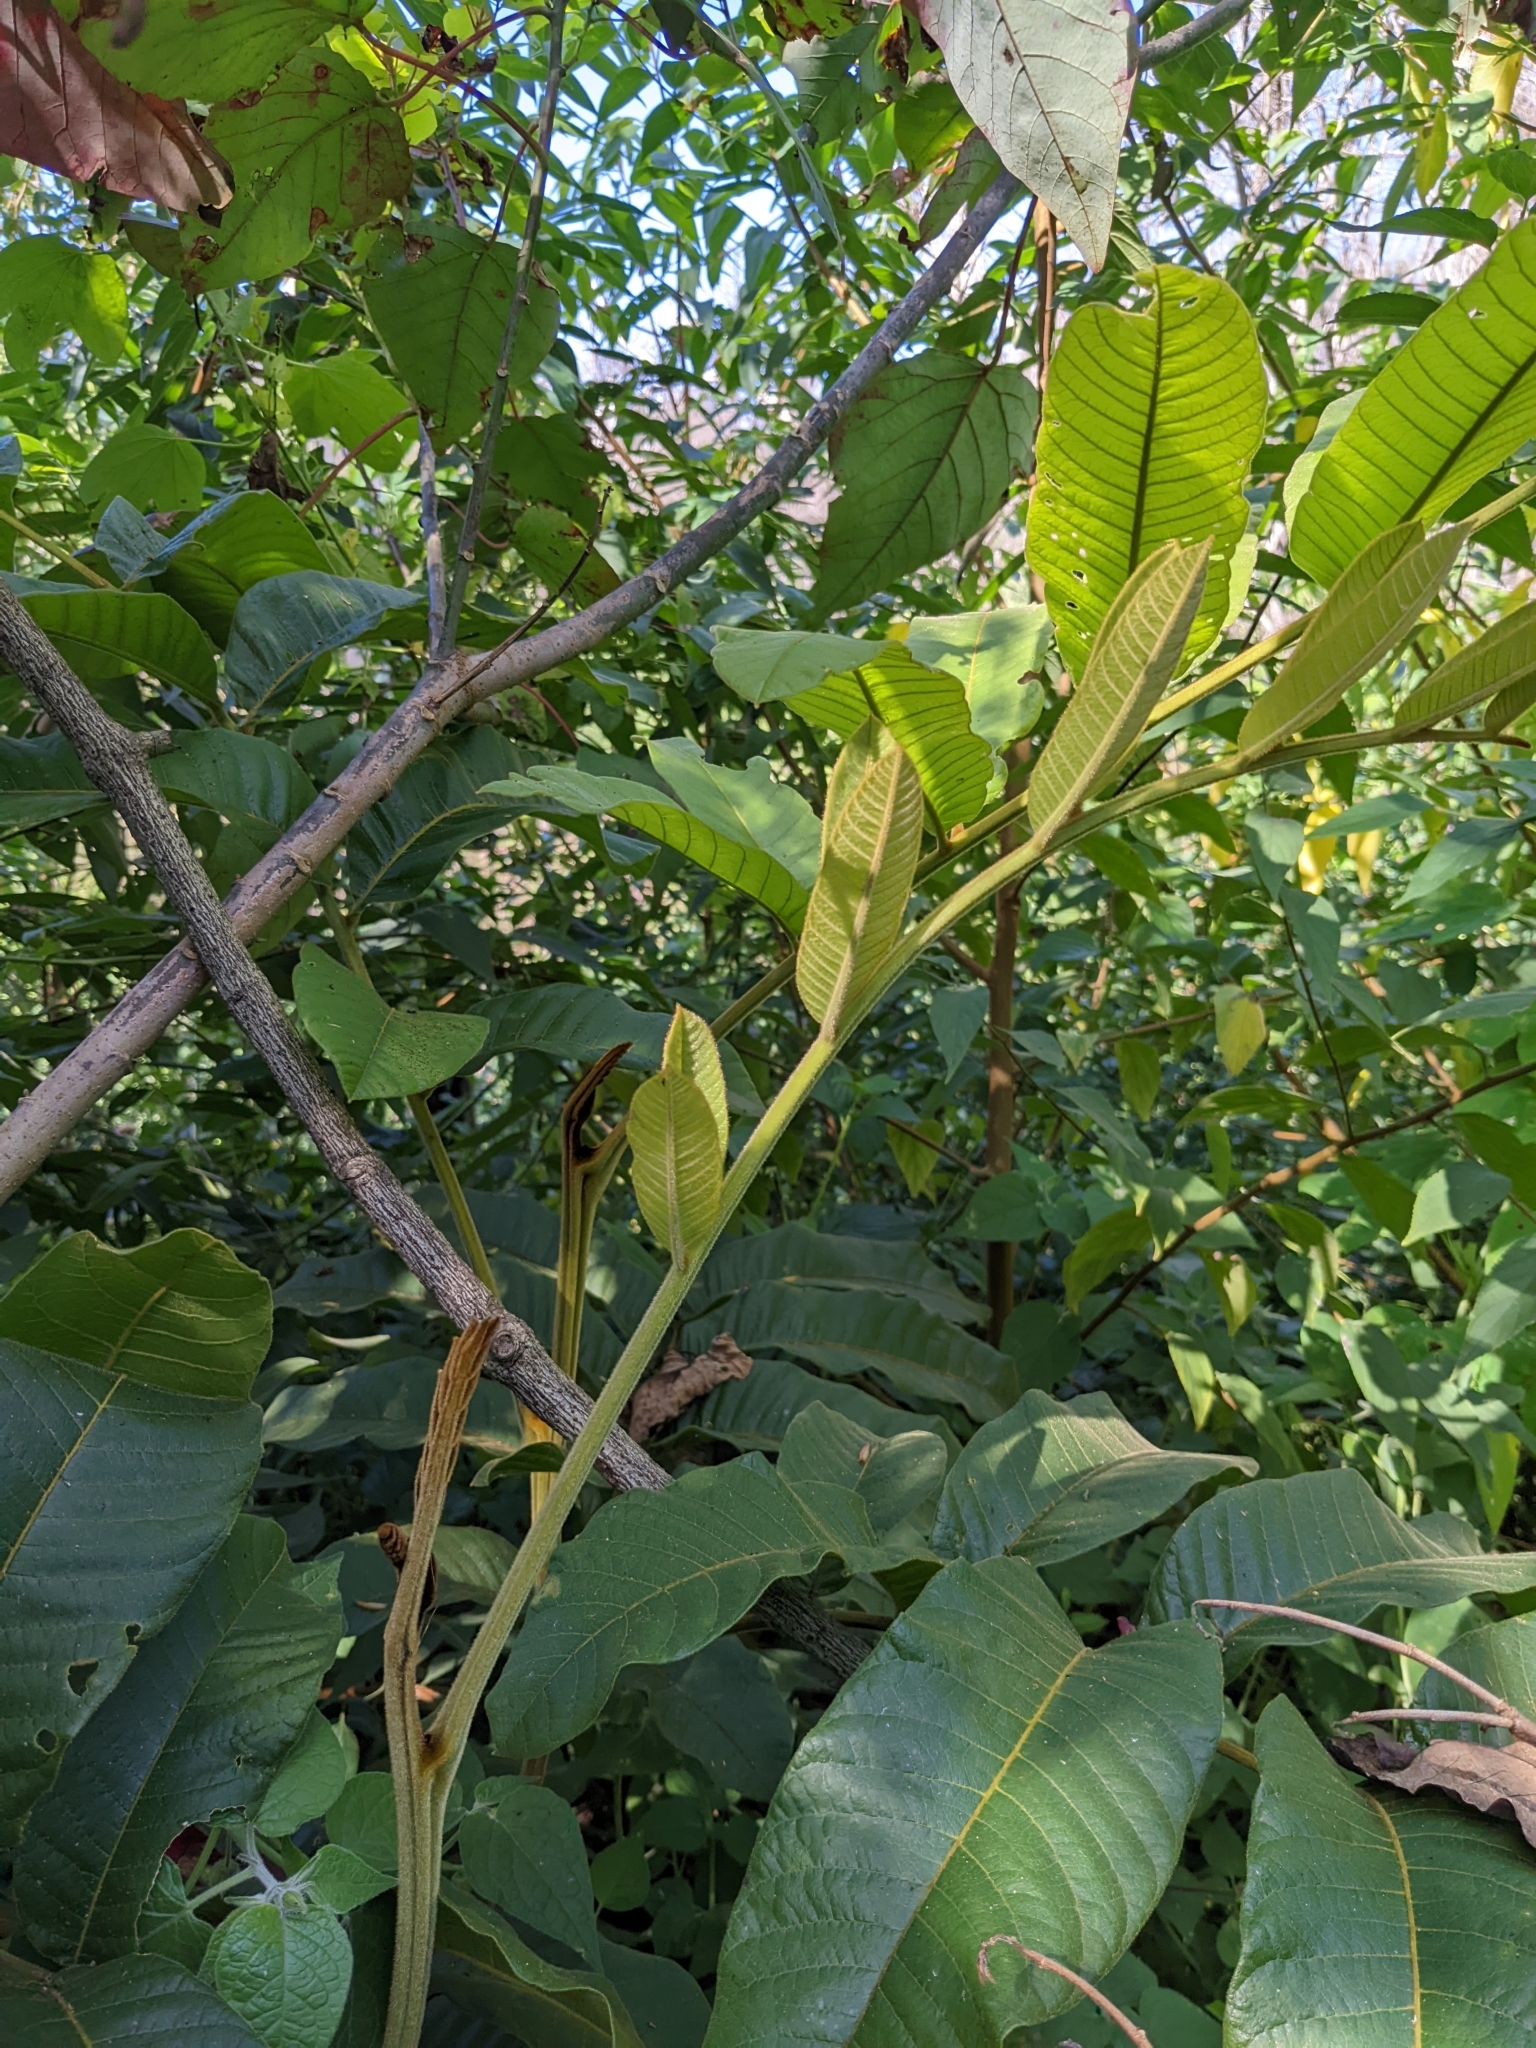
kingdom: Plantae
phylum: Tracheophyta
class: Magnoliopsida
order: Sapindales
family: Sapindaceae
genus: Diploglottis
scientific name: Diploglottis australis
